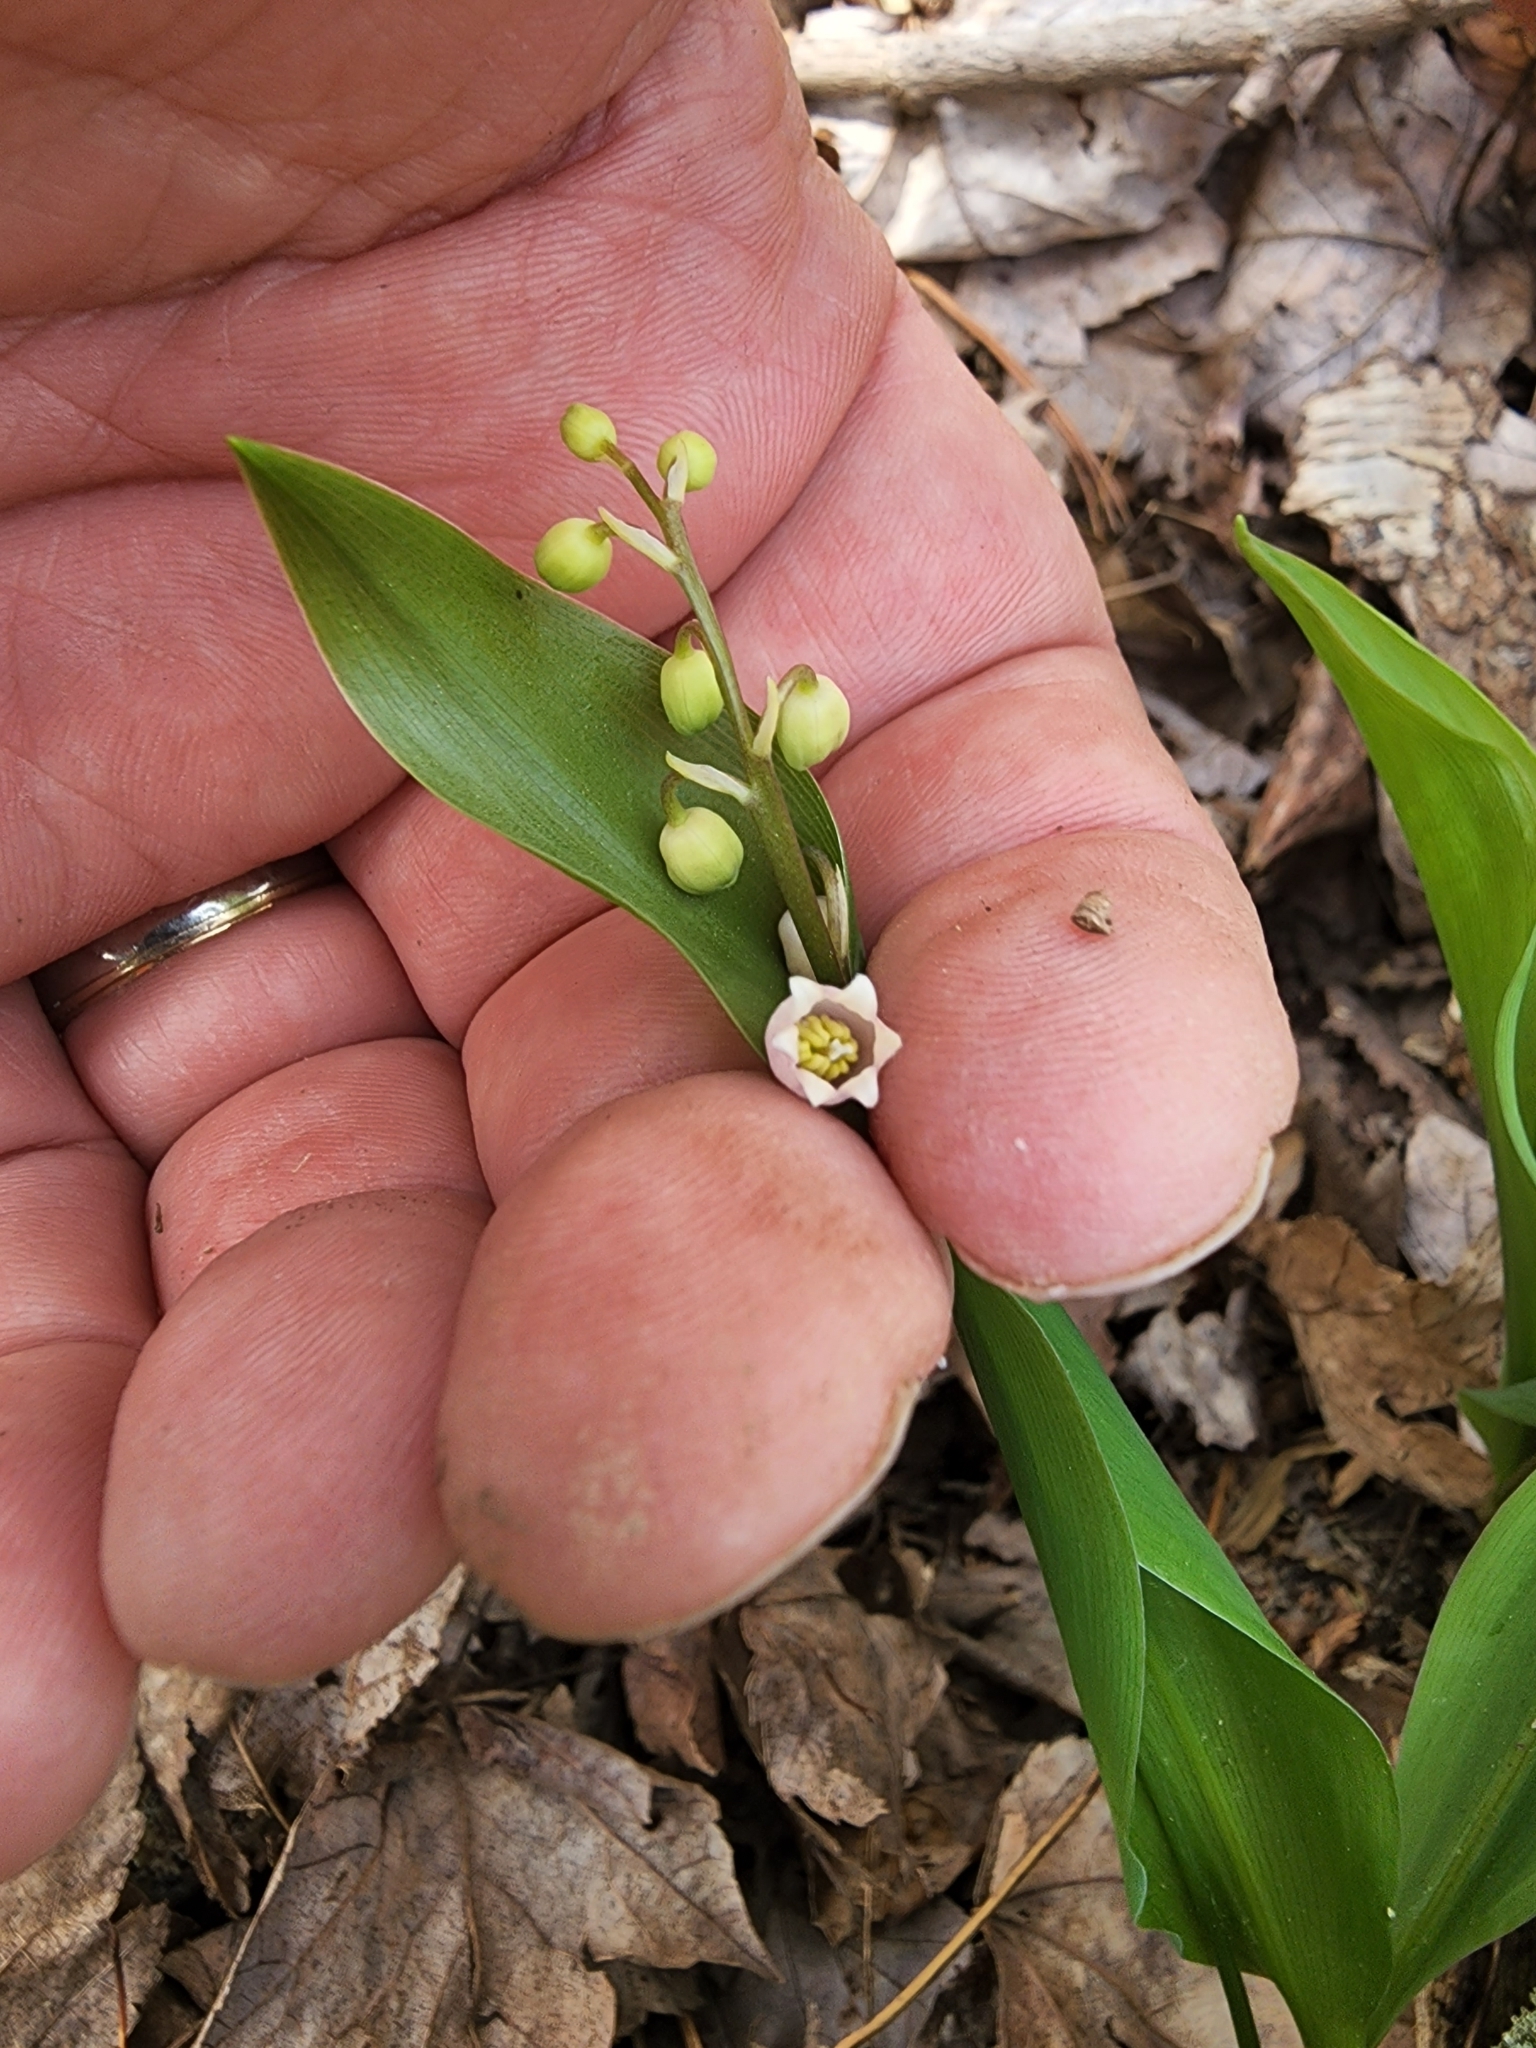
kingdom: Plantae
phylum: Tracheophyta
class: Liliopsida
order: Asparagales
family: Asparagaceae
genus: Convallaria
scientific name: Convallaria majalis
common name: Lily-of-the-valley
